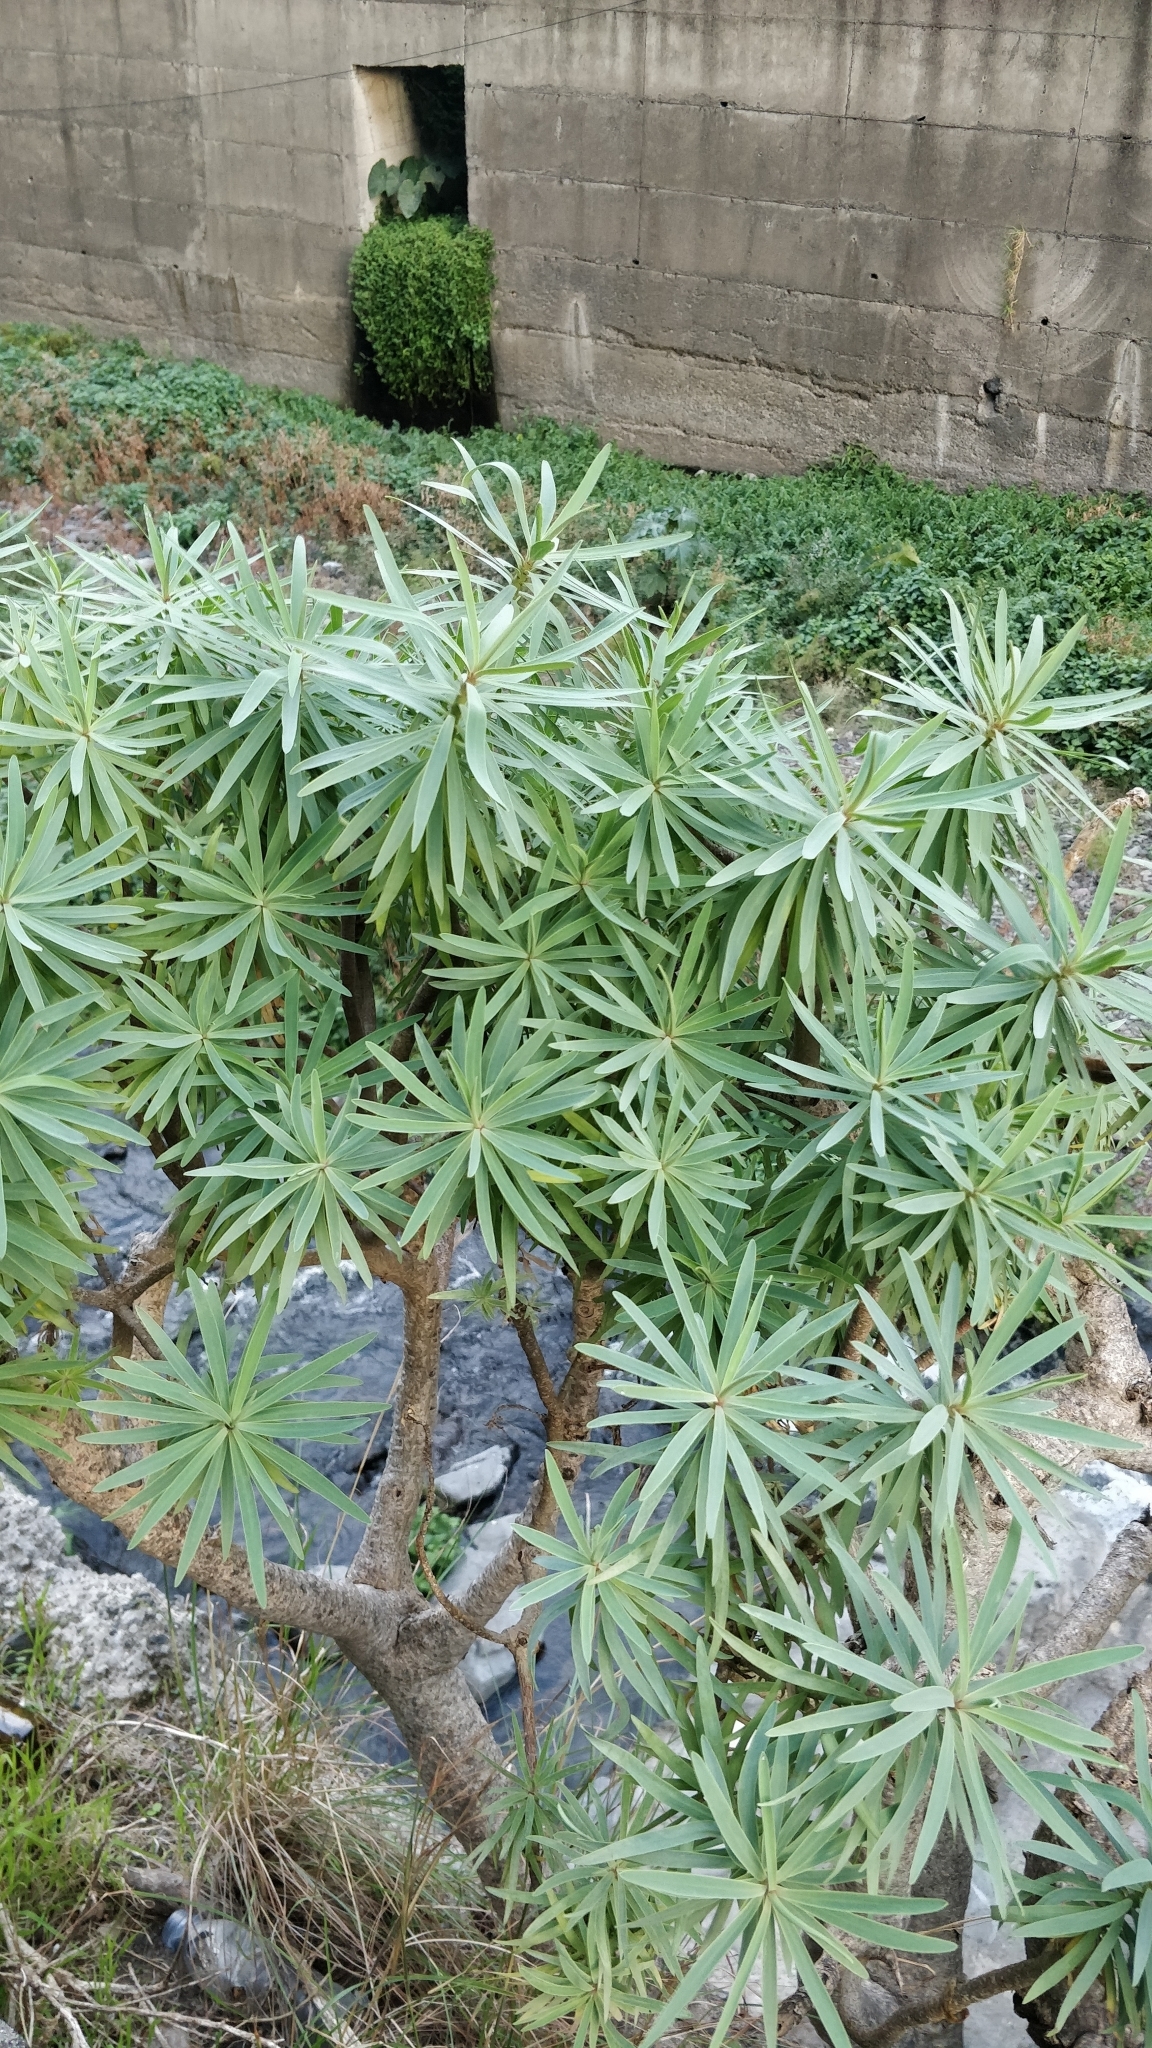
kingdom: Plantae
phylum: Tracheophyta
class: Magnoliopsida
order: Malpighiales
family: Euphorbiaceae
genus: Euphorbia
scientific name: Euphorbia piscatoria
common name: Fish-stunning spurge
